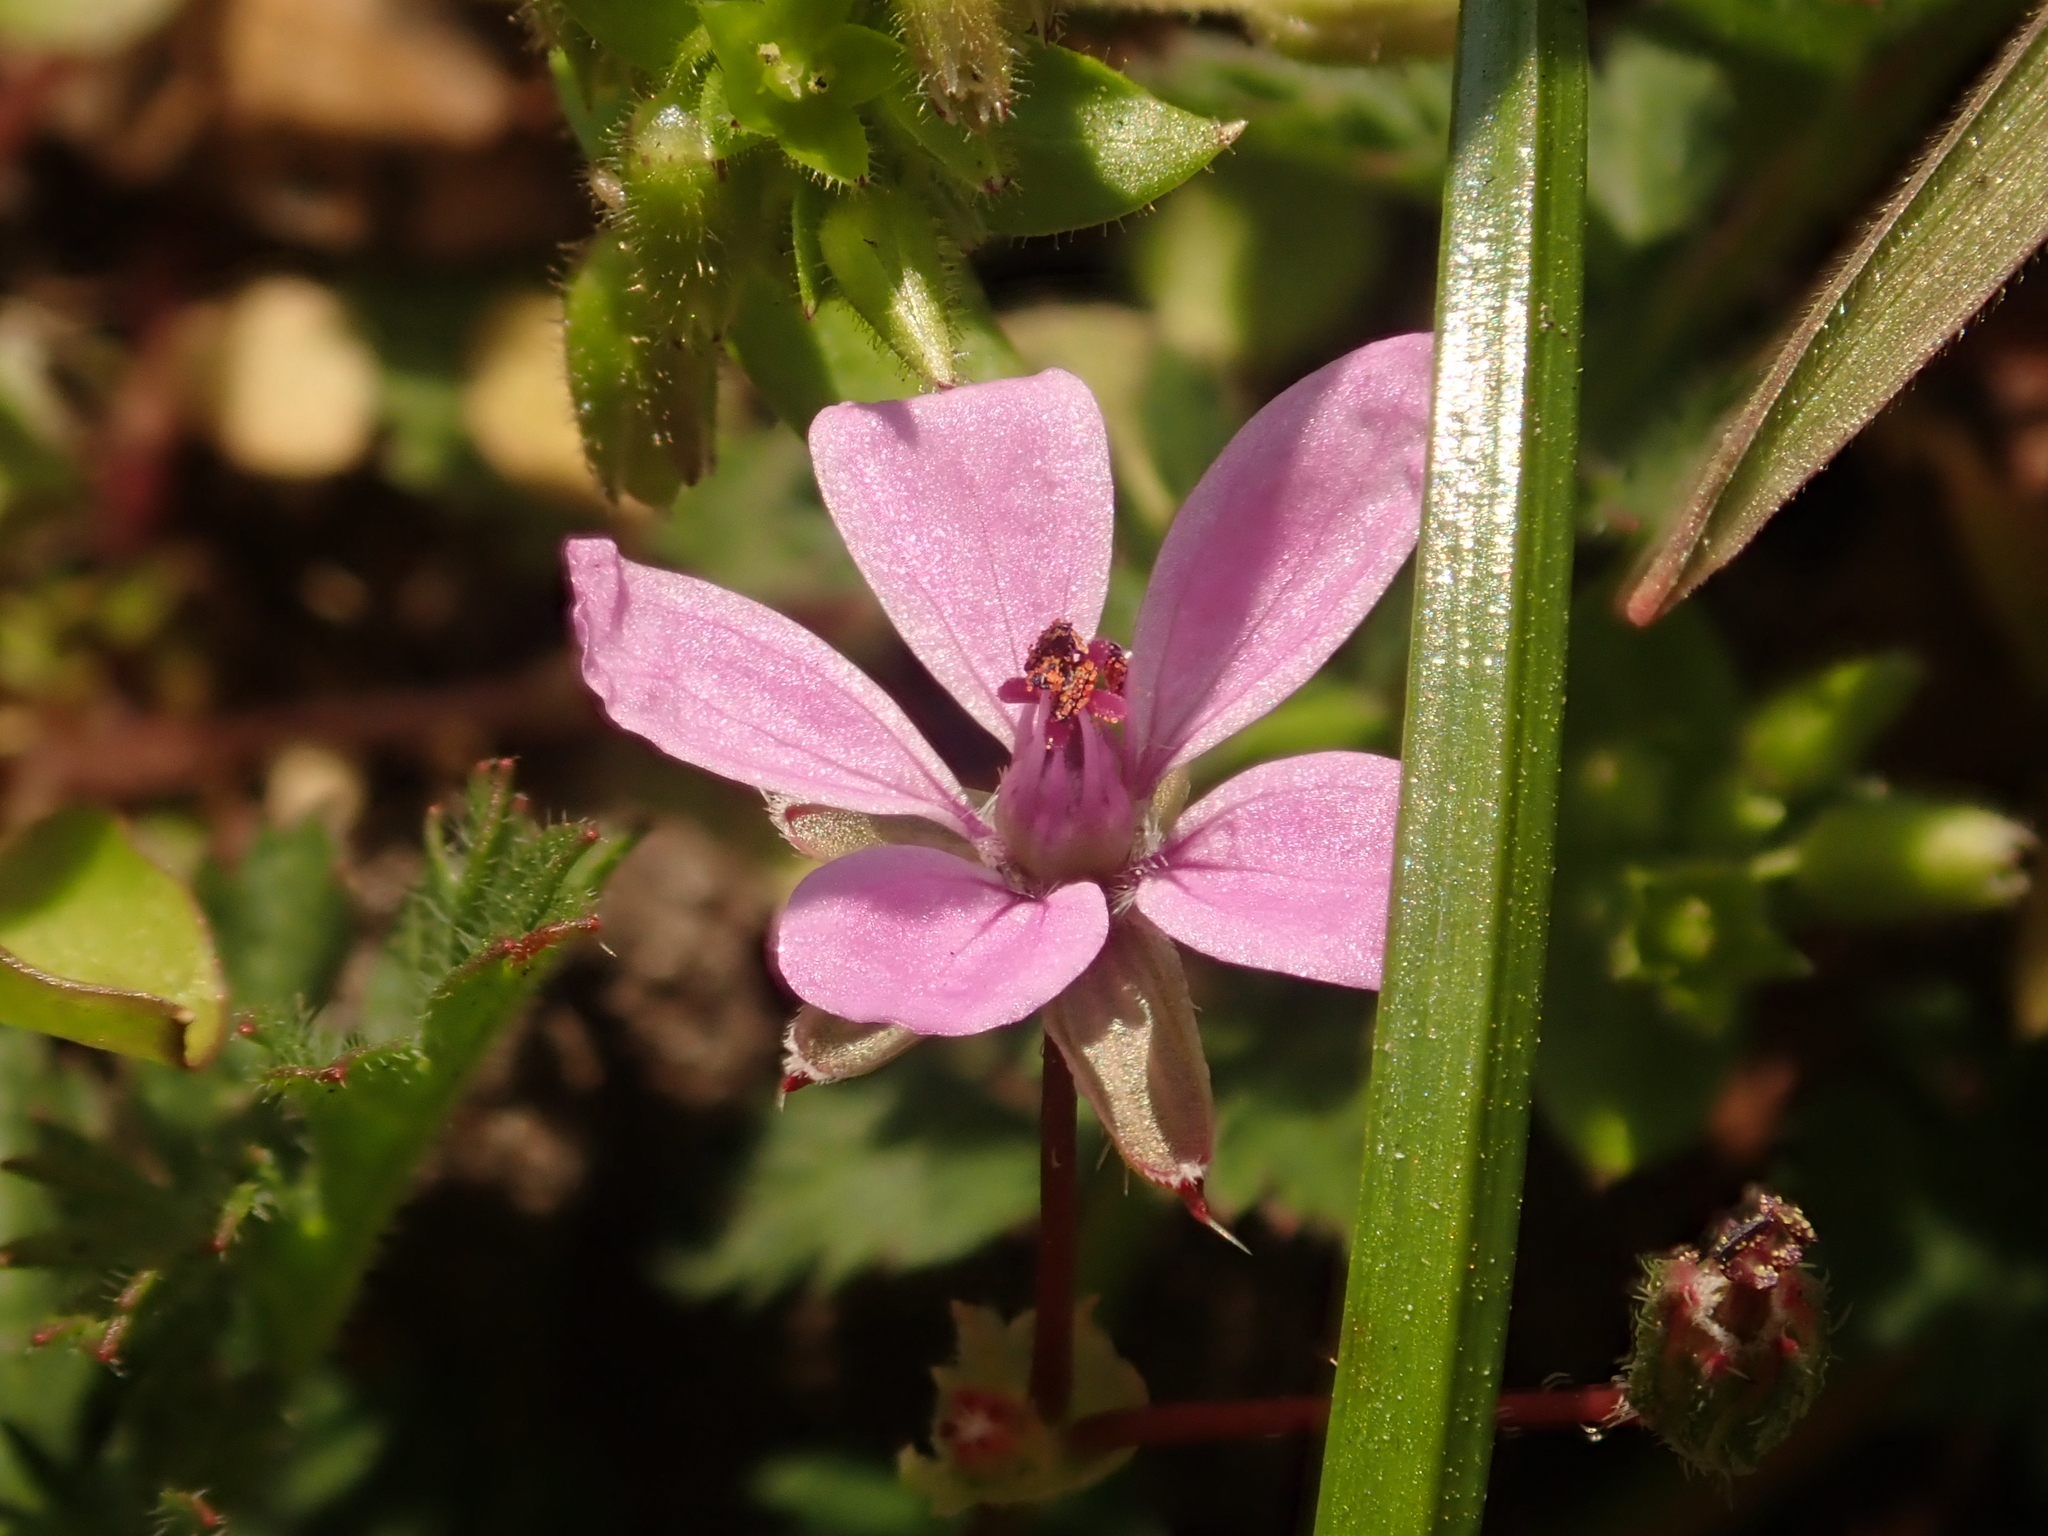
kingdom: Plantae
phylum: Tracheophyta
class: Magnoliopsida
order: Geraniales
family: Geraniaceae
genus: Erodium
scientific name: Erodium cicutarium
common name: Common stork's-bill
